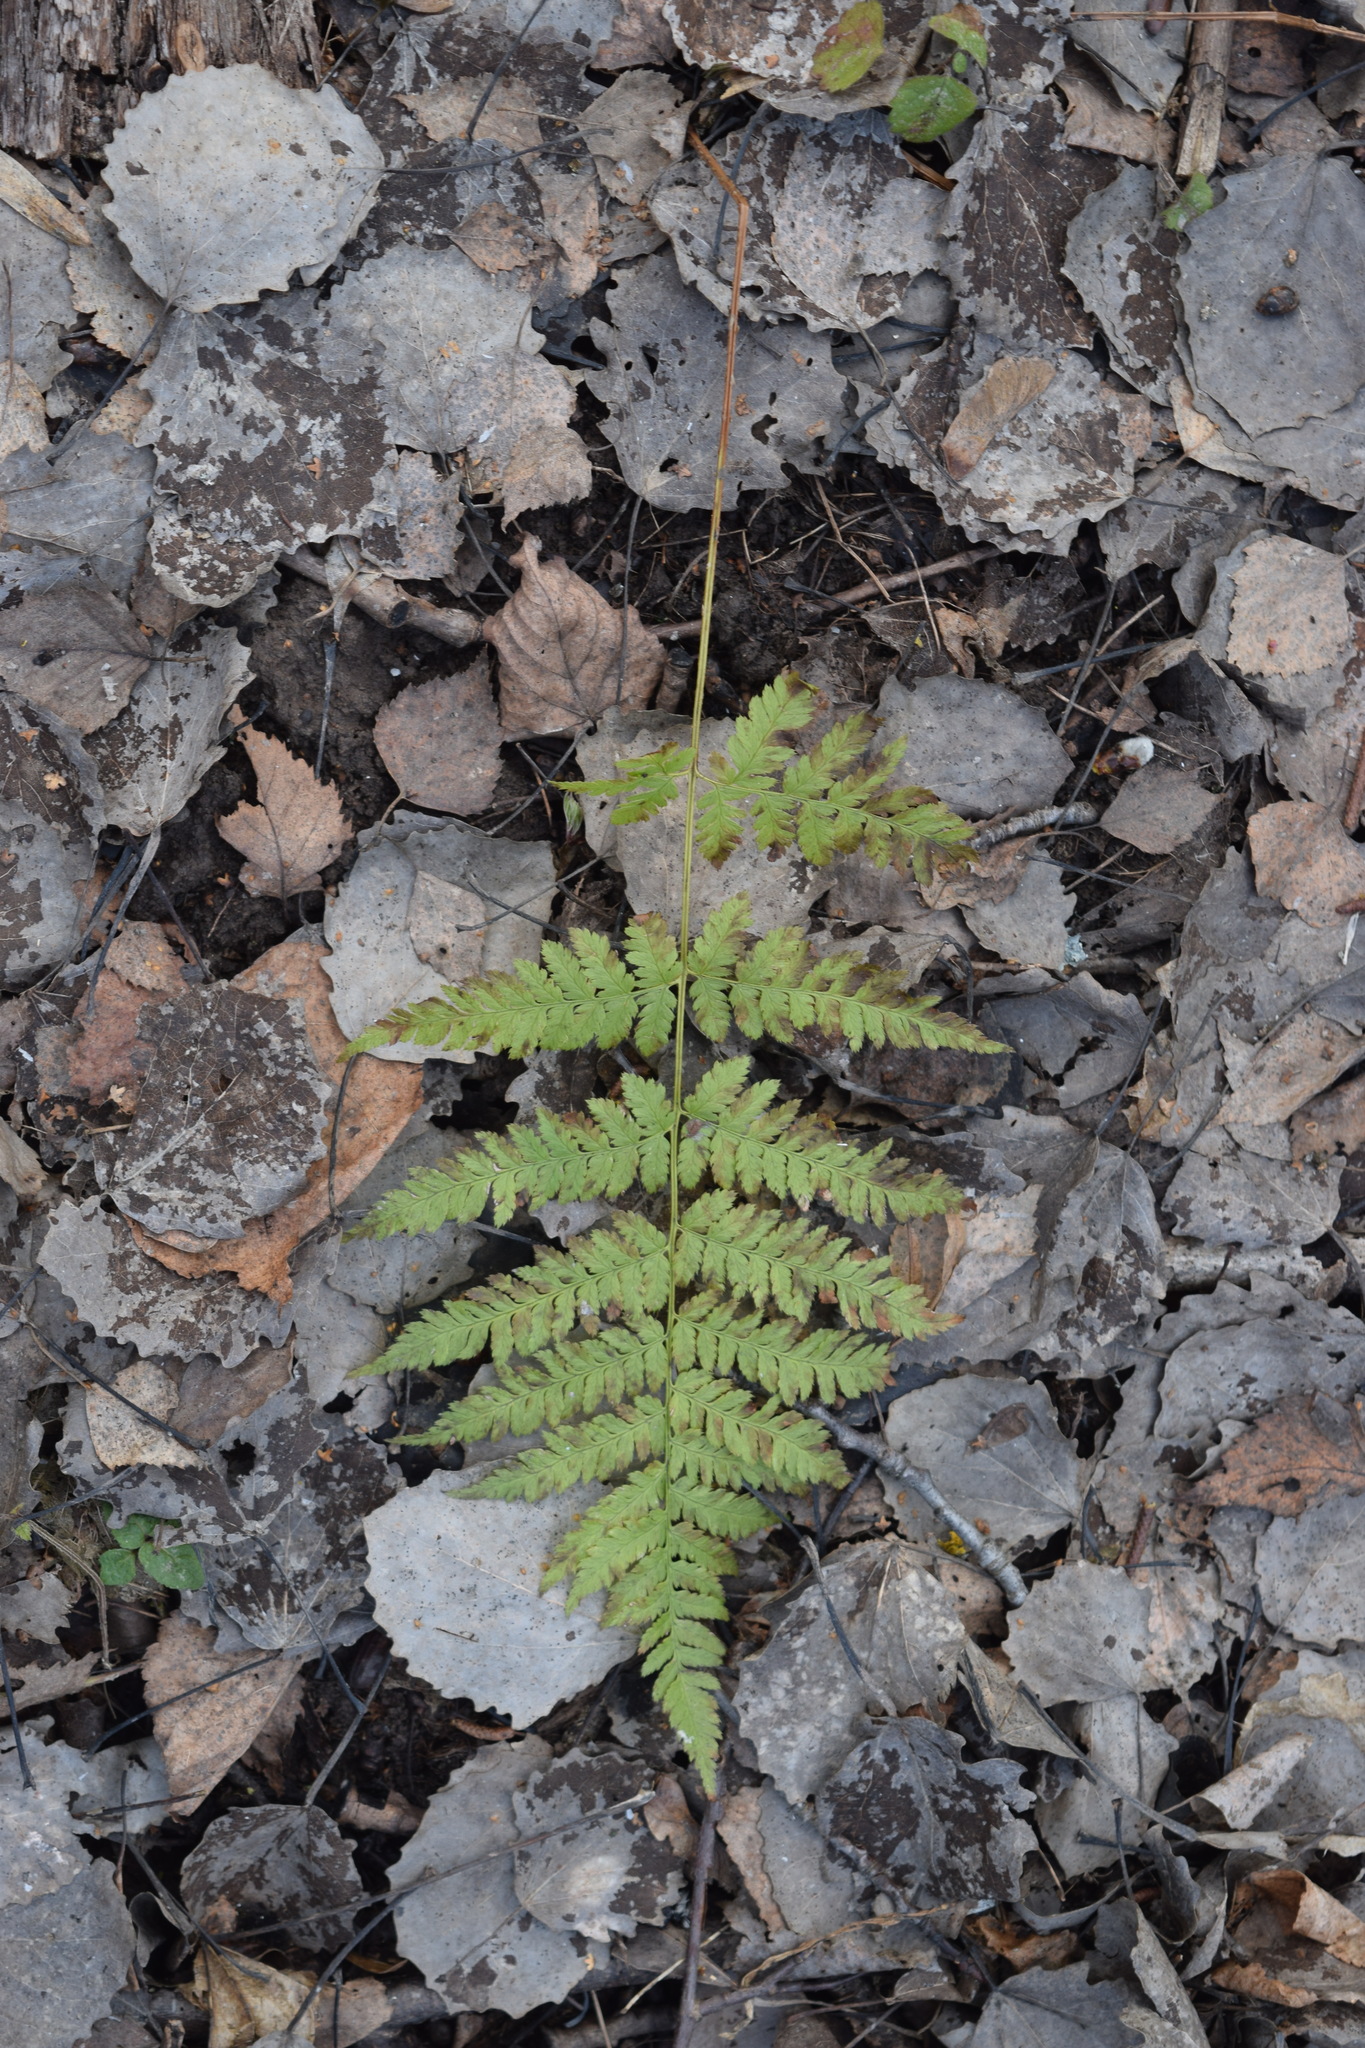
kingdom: Plantae
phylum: Tracheophyta
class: Polypodiopsida
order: Polypodiales
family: Dryopteridaceae
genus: Dryopteris
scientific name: Dryopteris carthusiana
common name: Narrow buckler-fern
